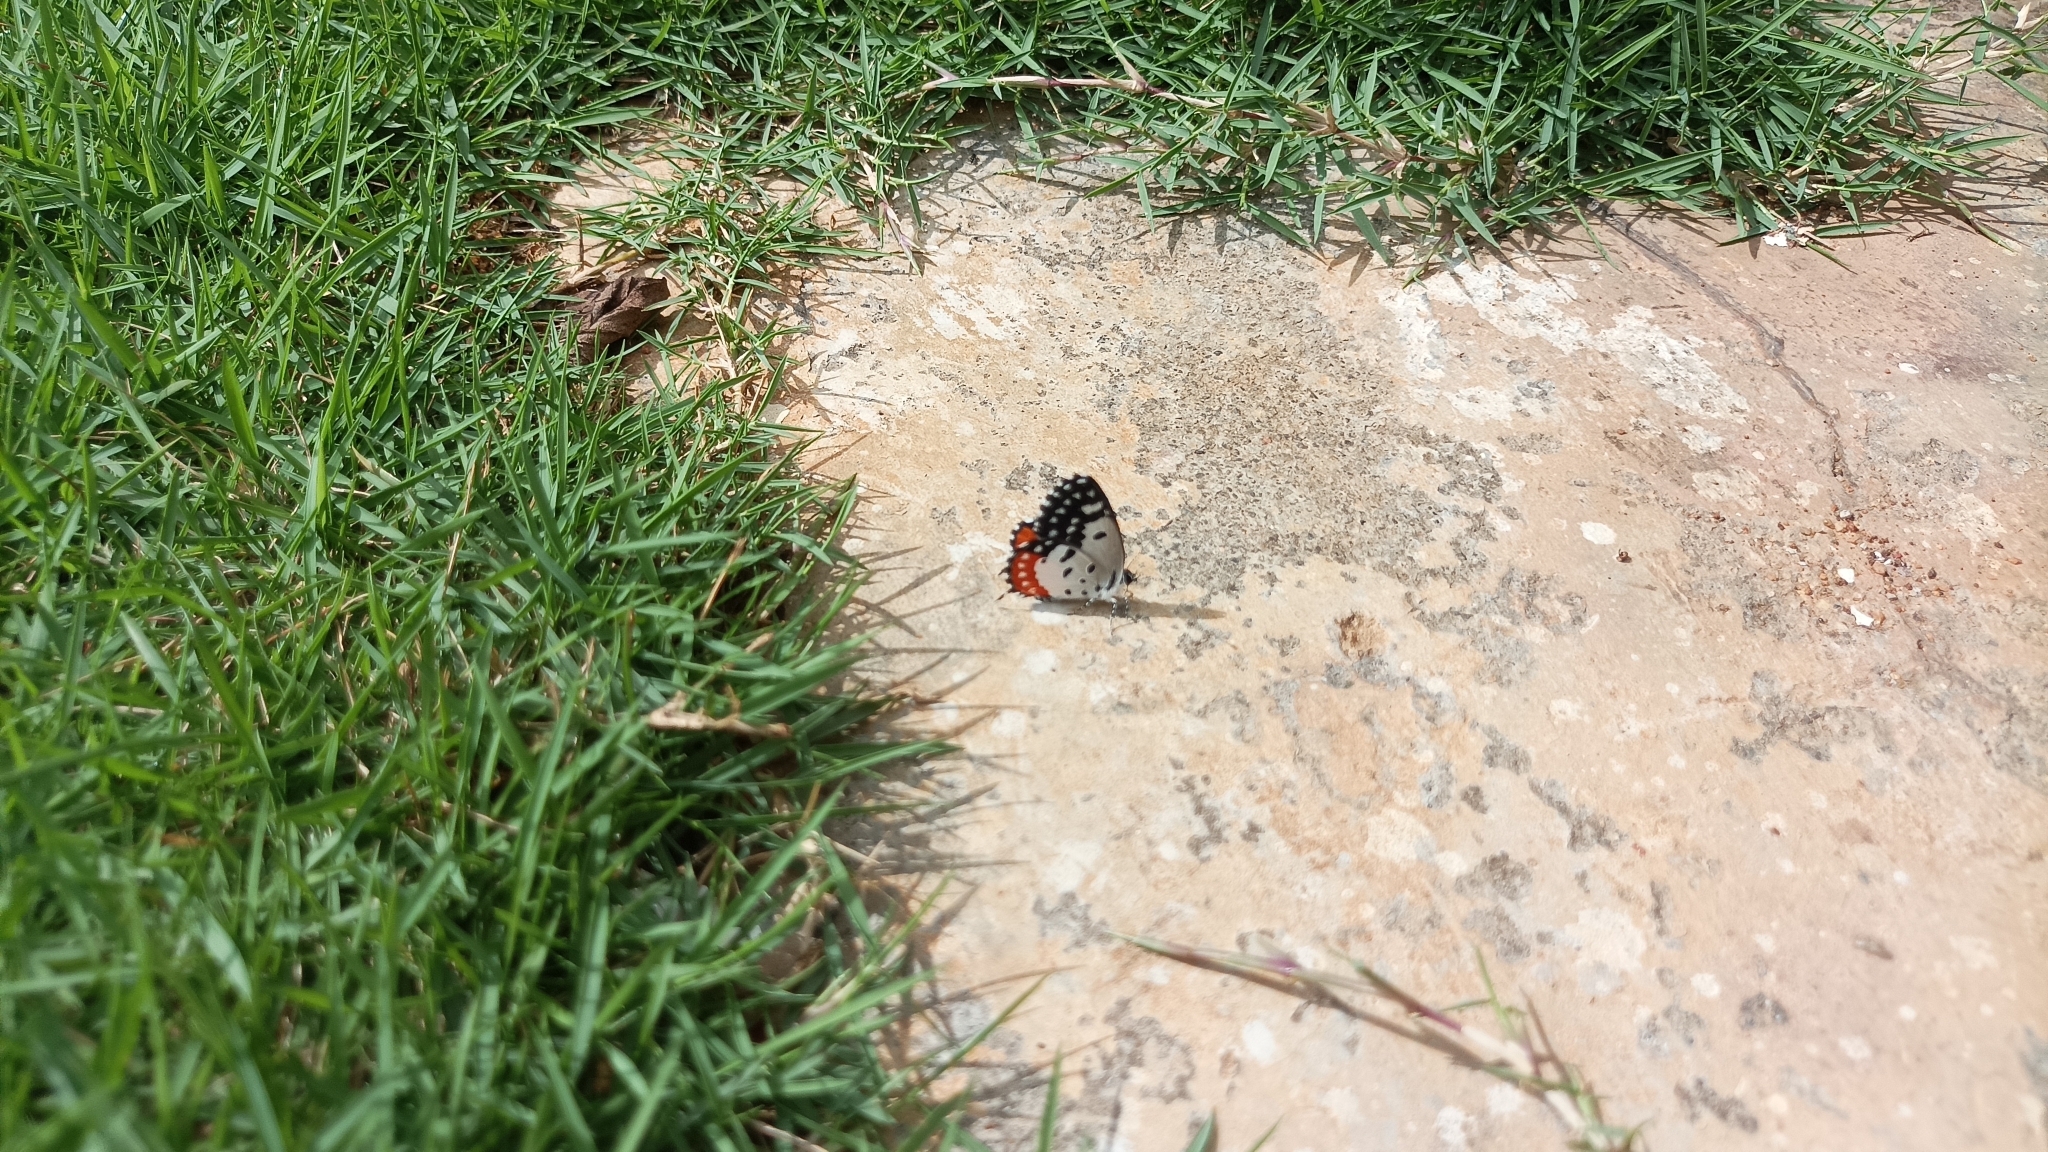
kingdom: Animalia
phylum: Arthropoda
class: Insecta
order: Lepidoptera
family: Lycaenidae
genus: Talicada
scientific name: Talicada nyseus
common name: Red pierrot
